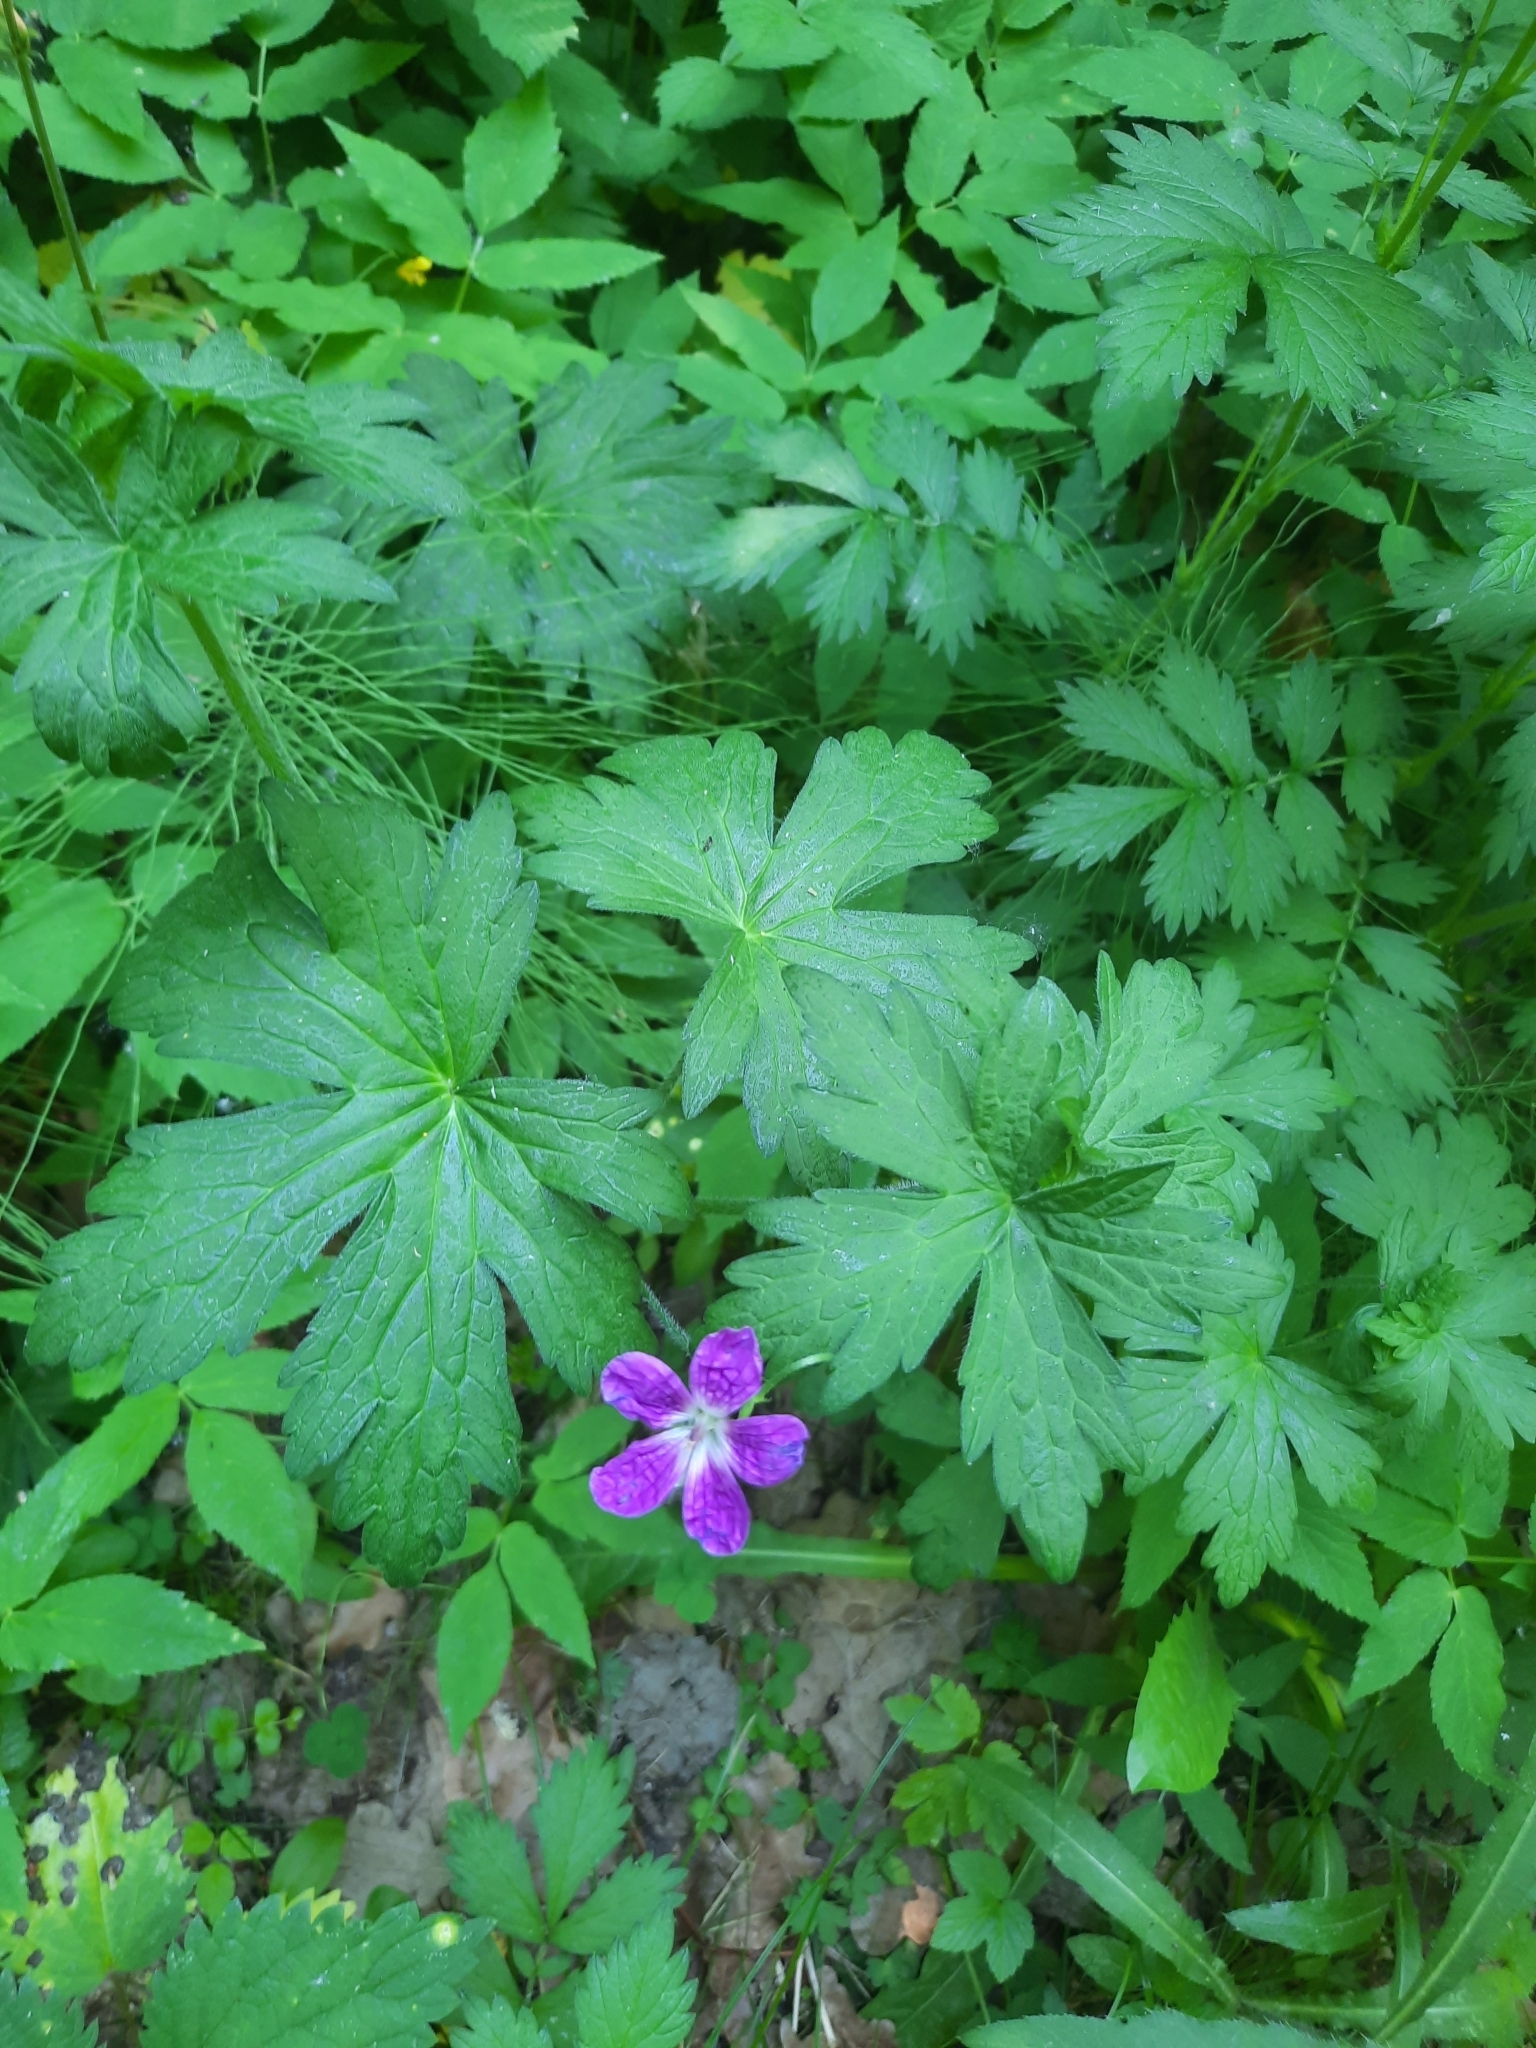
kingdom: Plantae
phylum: Tracheophyta
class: Magnoliopsida
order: Geraniales
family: Geraniaceae
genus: Geranium
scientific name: Geranium palustre
